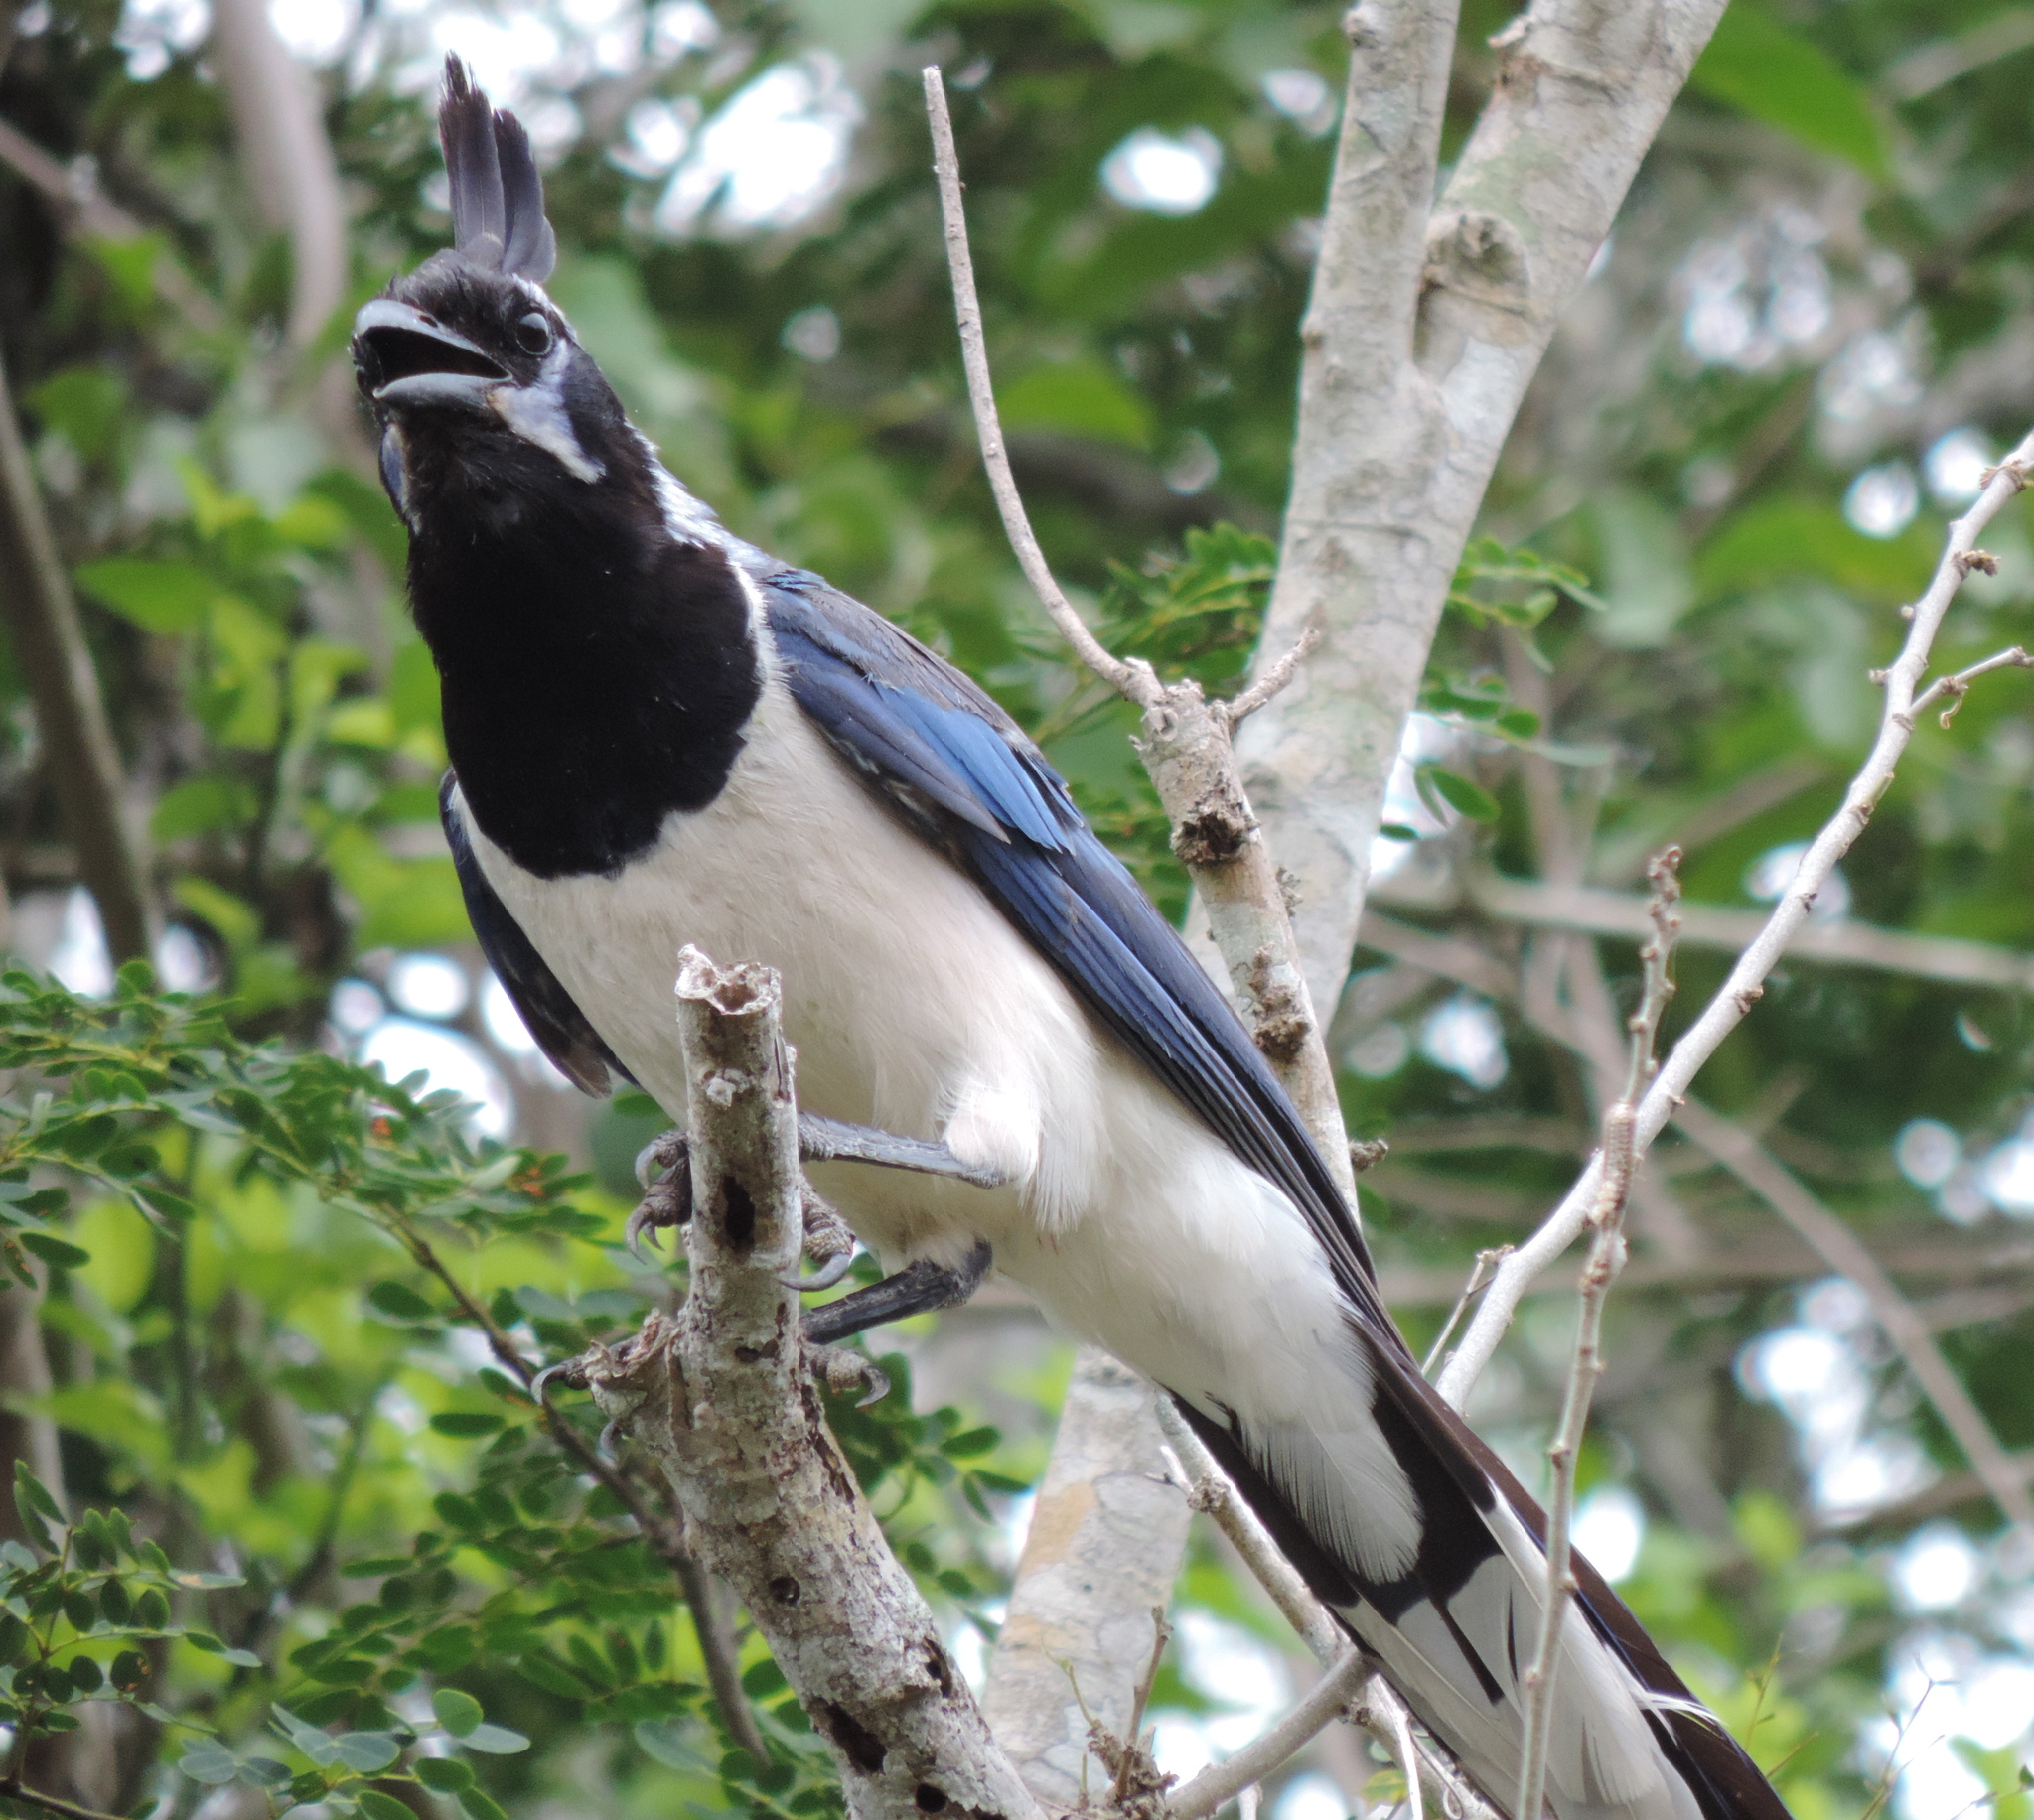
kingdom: Animalia
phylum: Chordata
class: Aves
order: Passeriformes
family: Corvidae
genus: Calocitta
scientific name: Calocitta colliei
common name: Black-throated magpie-jay
